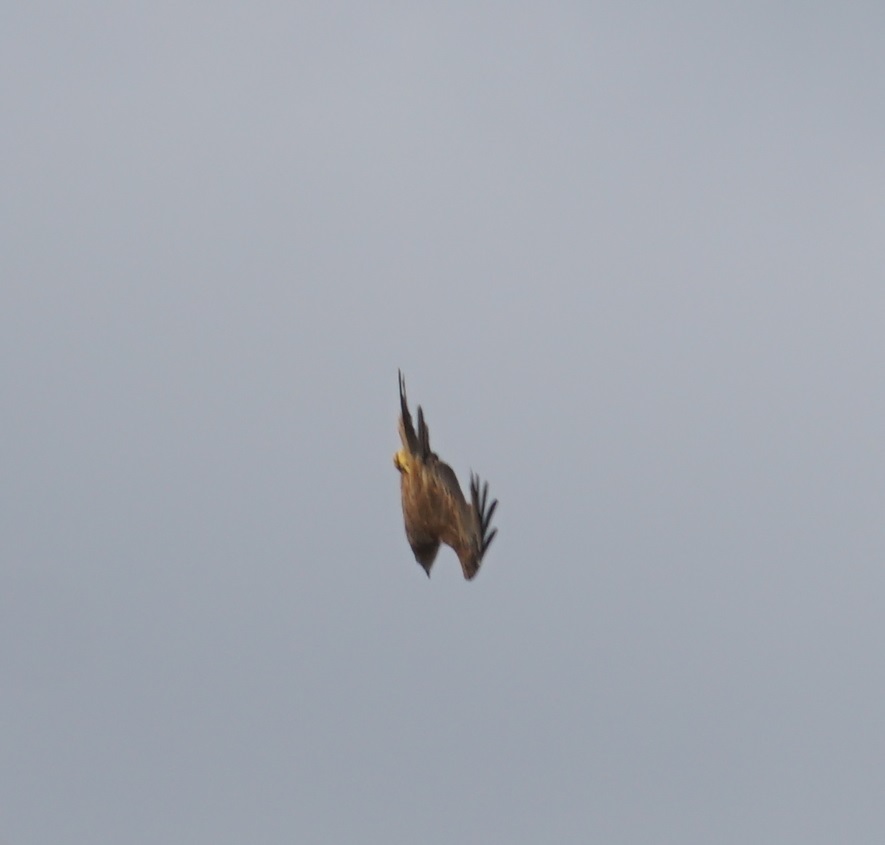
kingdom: Animalia
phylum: Chordata
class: Aves
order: Accipitriformes
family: Accipitridae
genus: Milvus
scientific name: Milvus migrans
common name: Black kite
